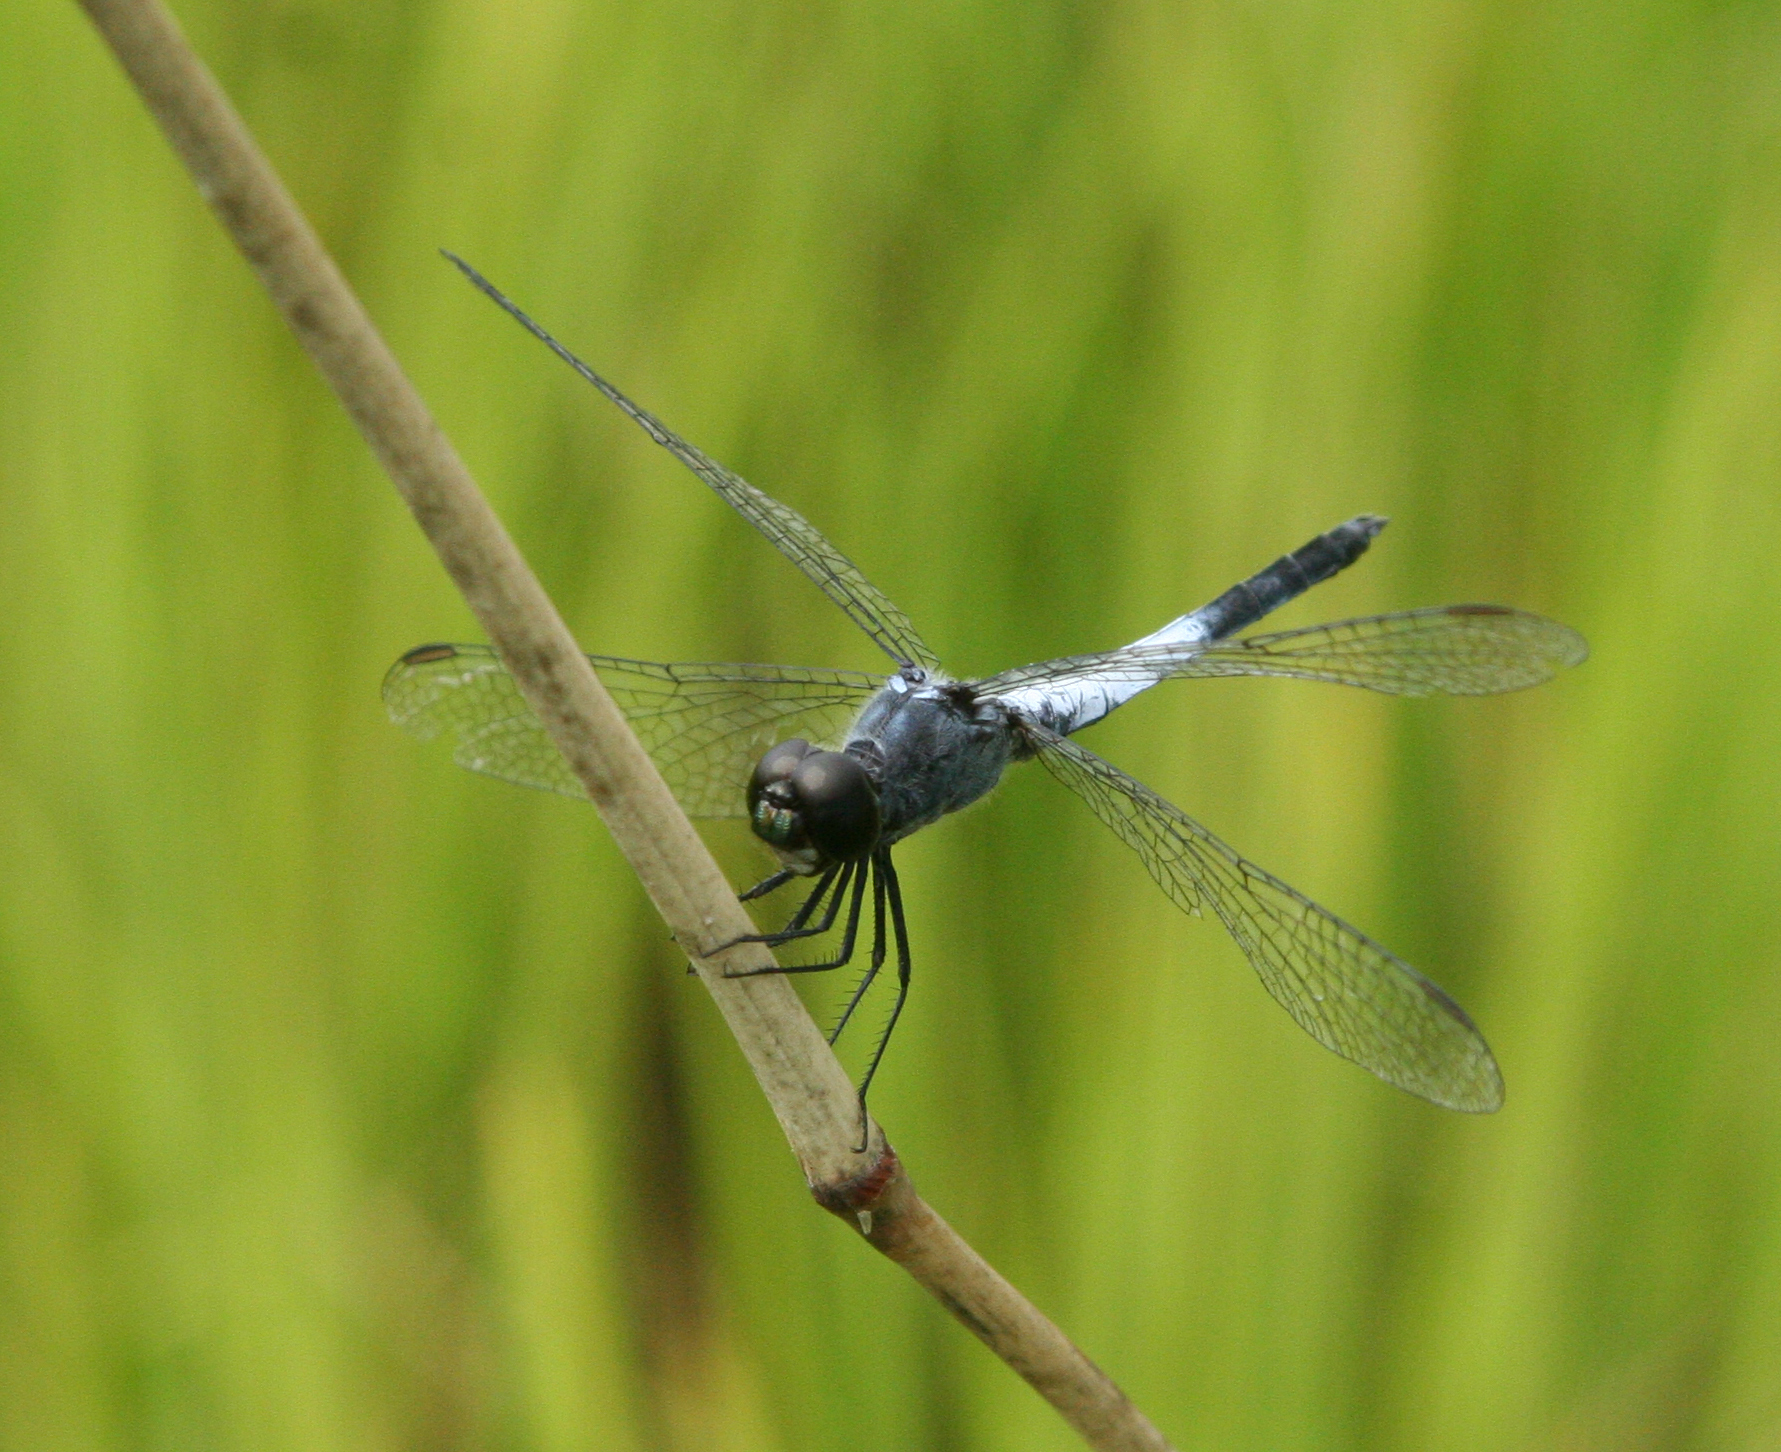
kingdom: Animalia
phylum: Arthropoda
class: Insecta
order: Odonata
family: Libellulidae
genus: Brachydiplax
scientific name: Brachydiplax farinosa
